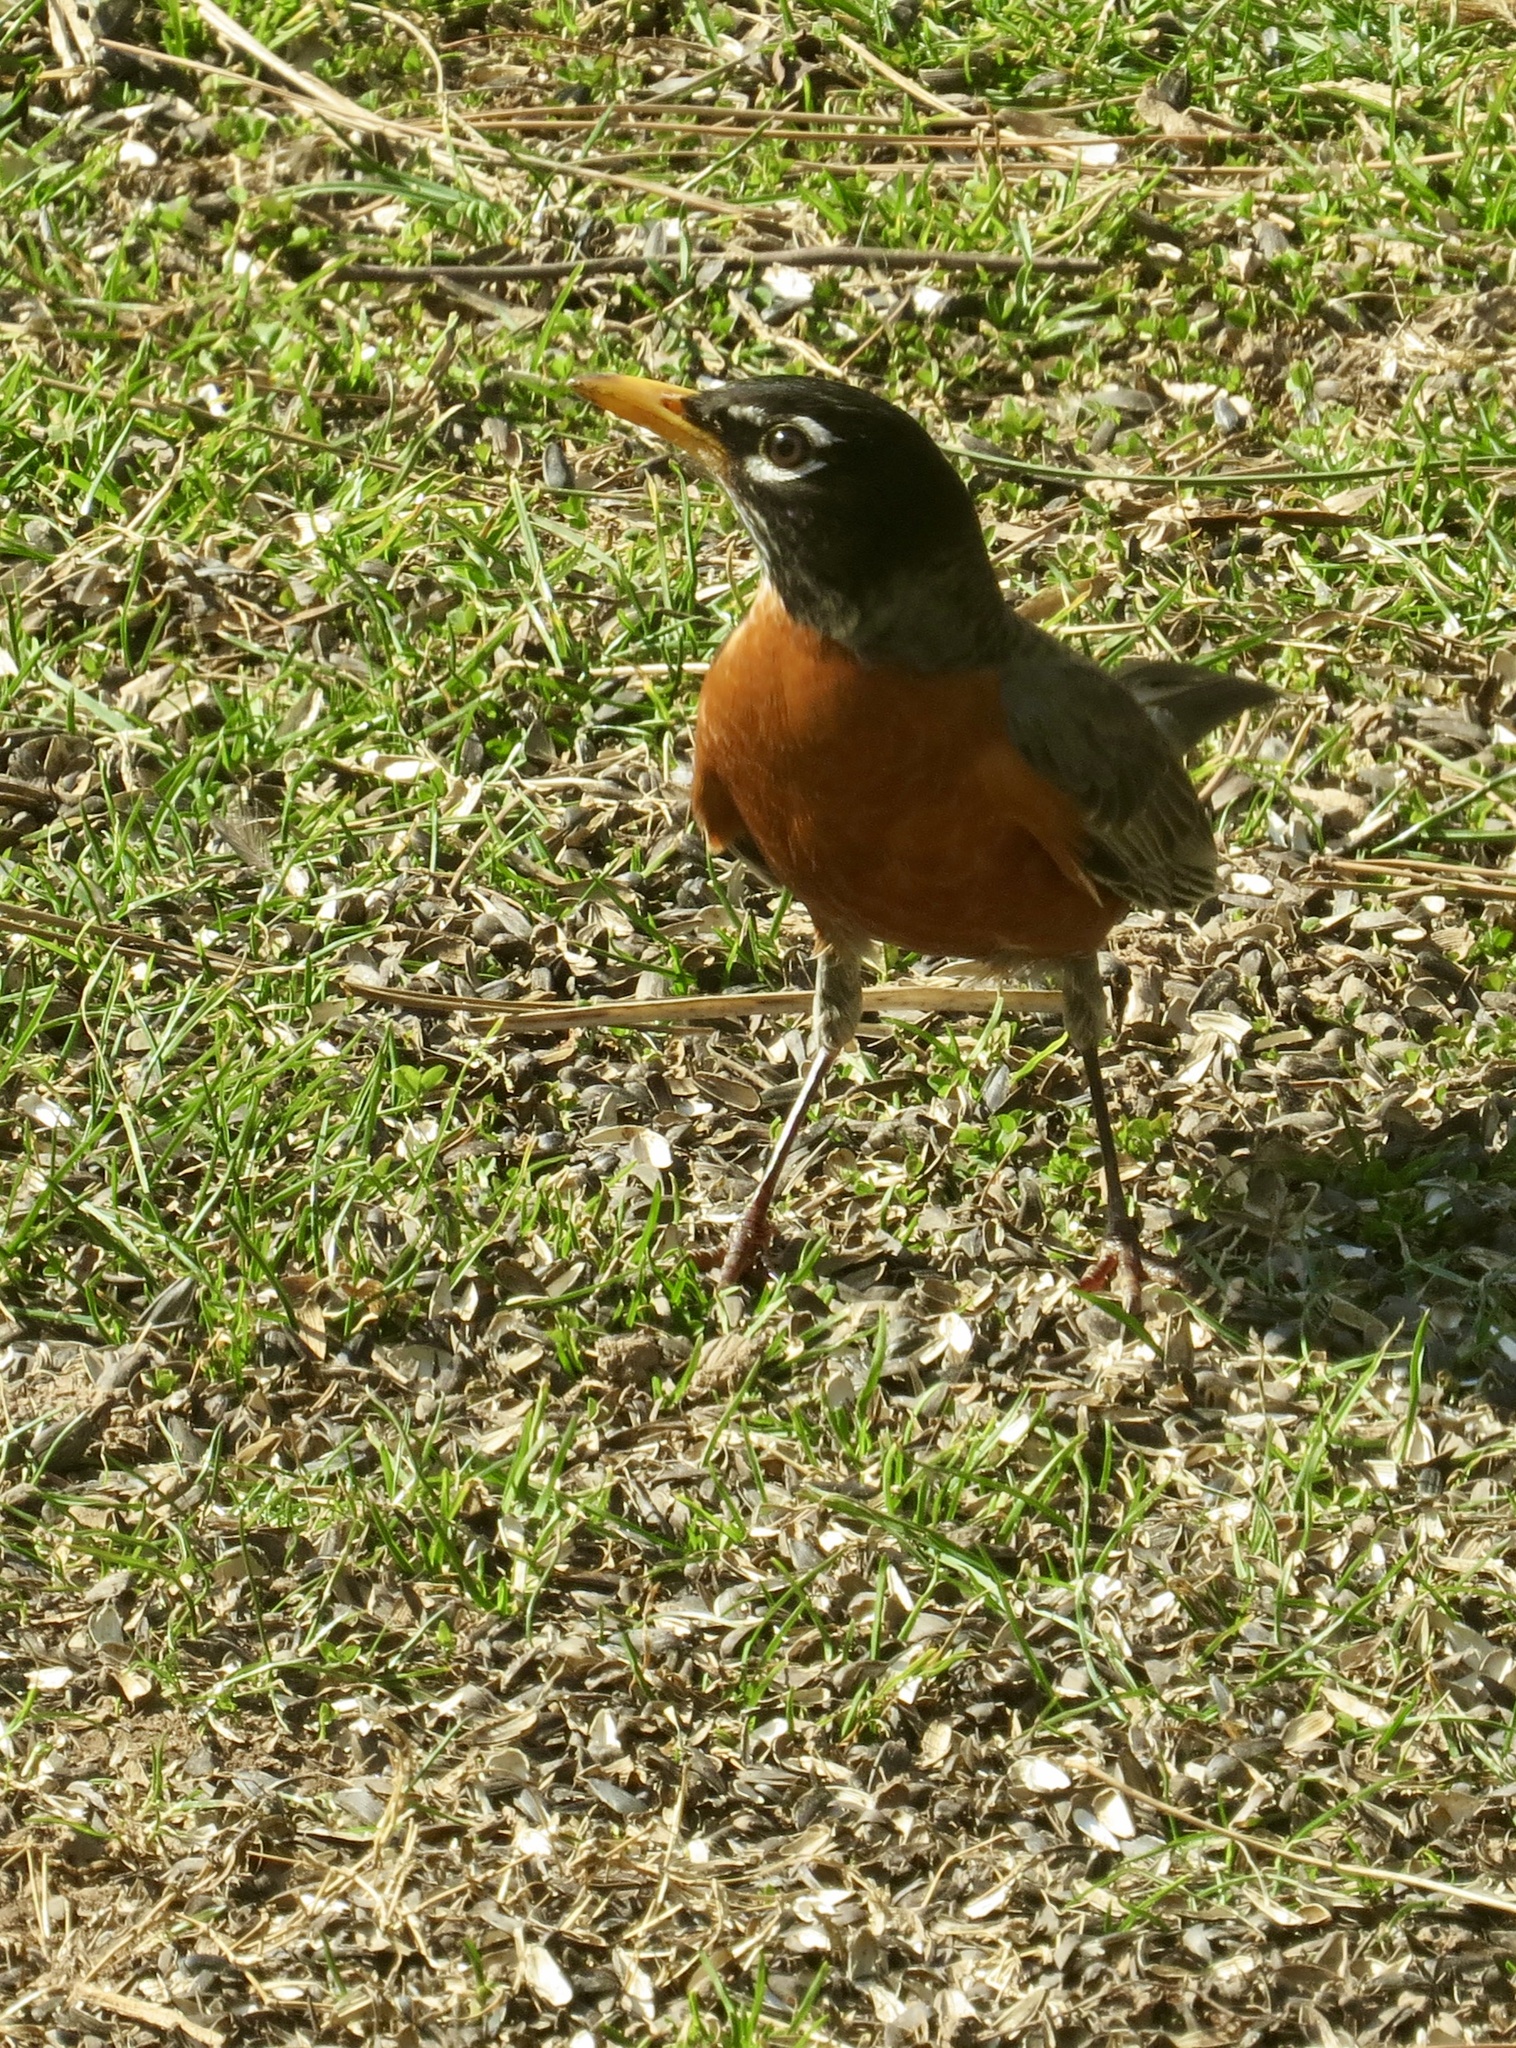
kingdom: Animalia
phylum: Chordata
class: Aves
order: Passeriformes
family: Turdidae
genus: Turdus
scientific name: Turdus migratorius
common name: American robin
